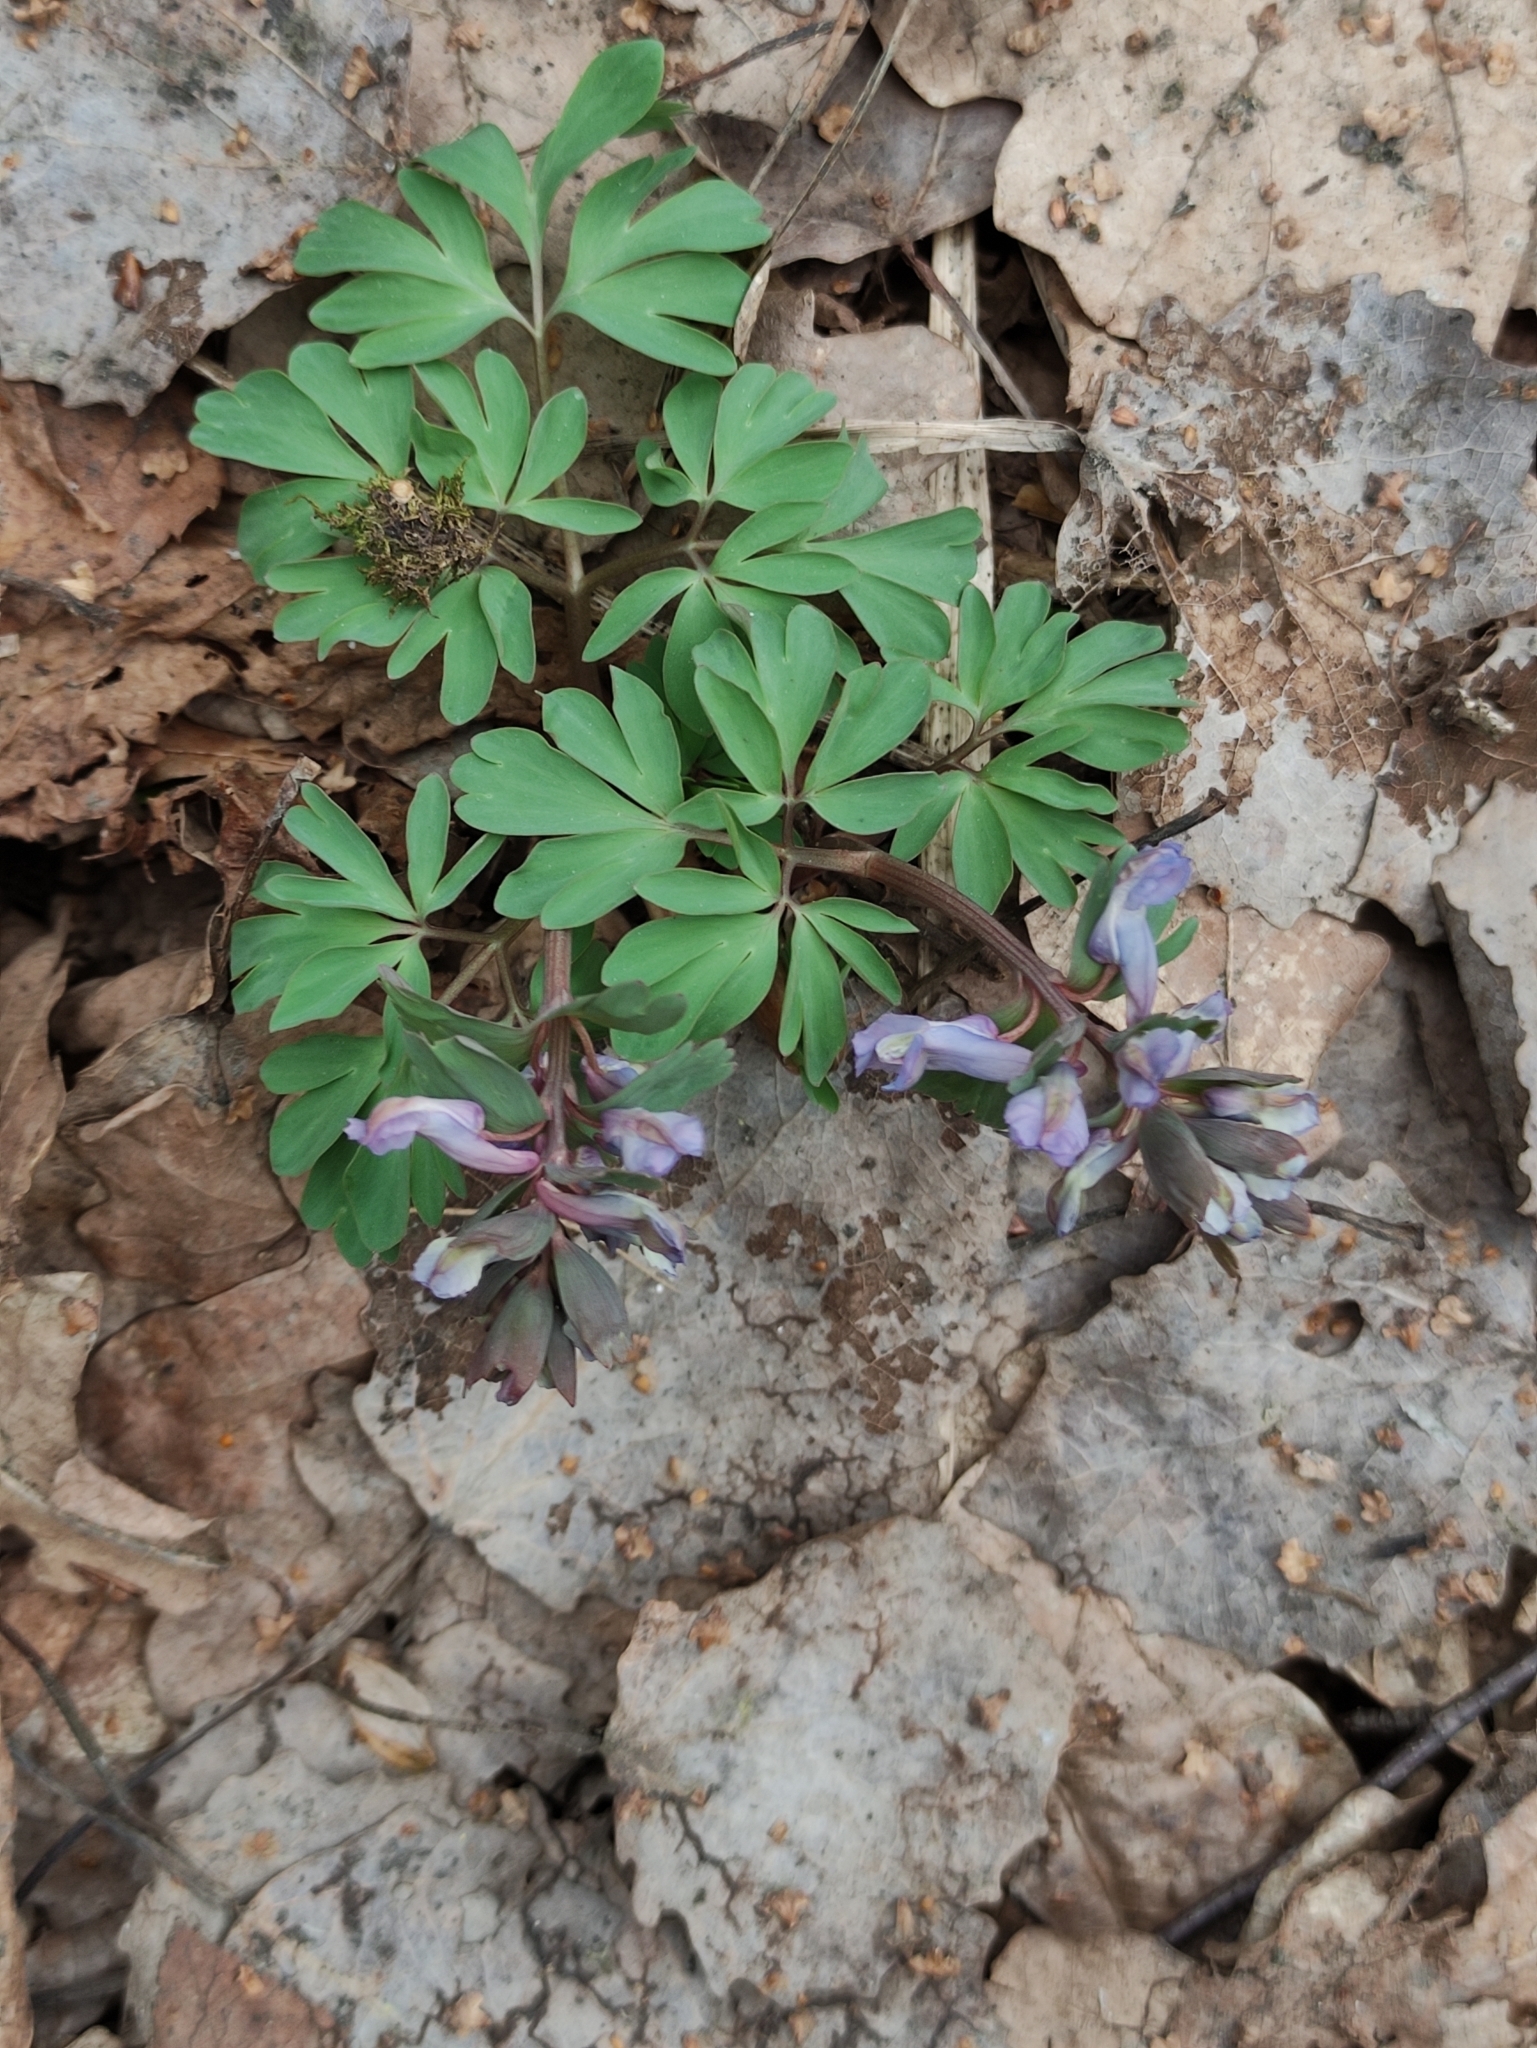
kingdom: Plantae
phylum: Tracheophyta
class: Magnoliopsida
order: Ranunculales
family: Papaveraceae
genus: Corydalis
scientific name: Corydalis solida
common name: Bird-in-a-bush
